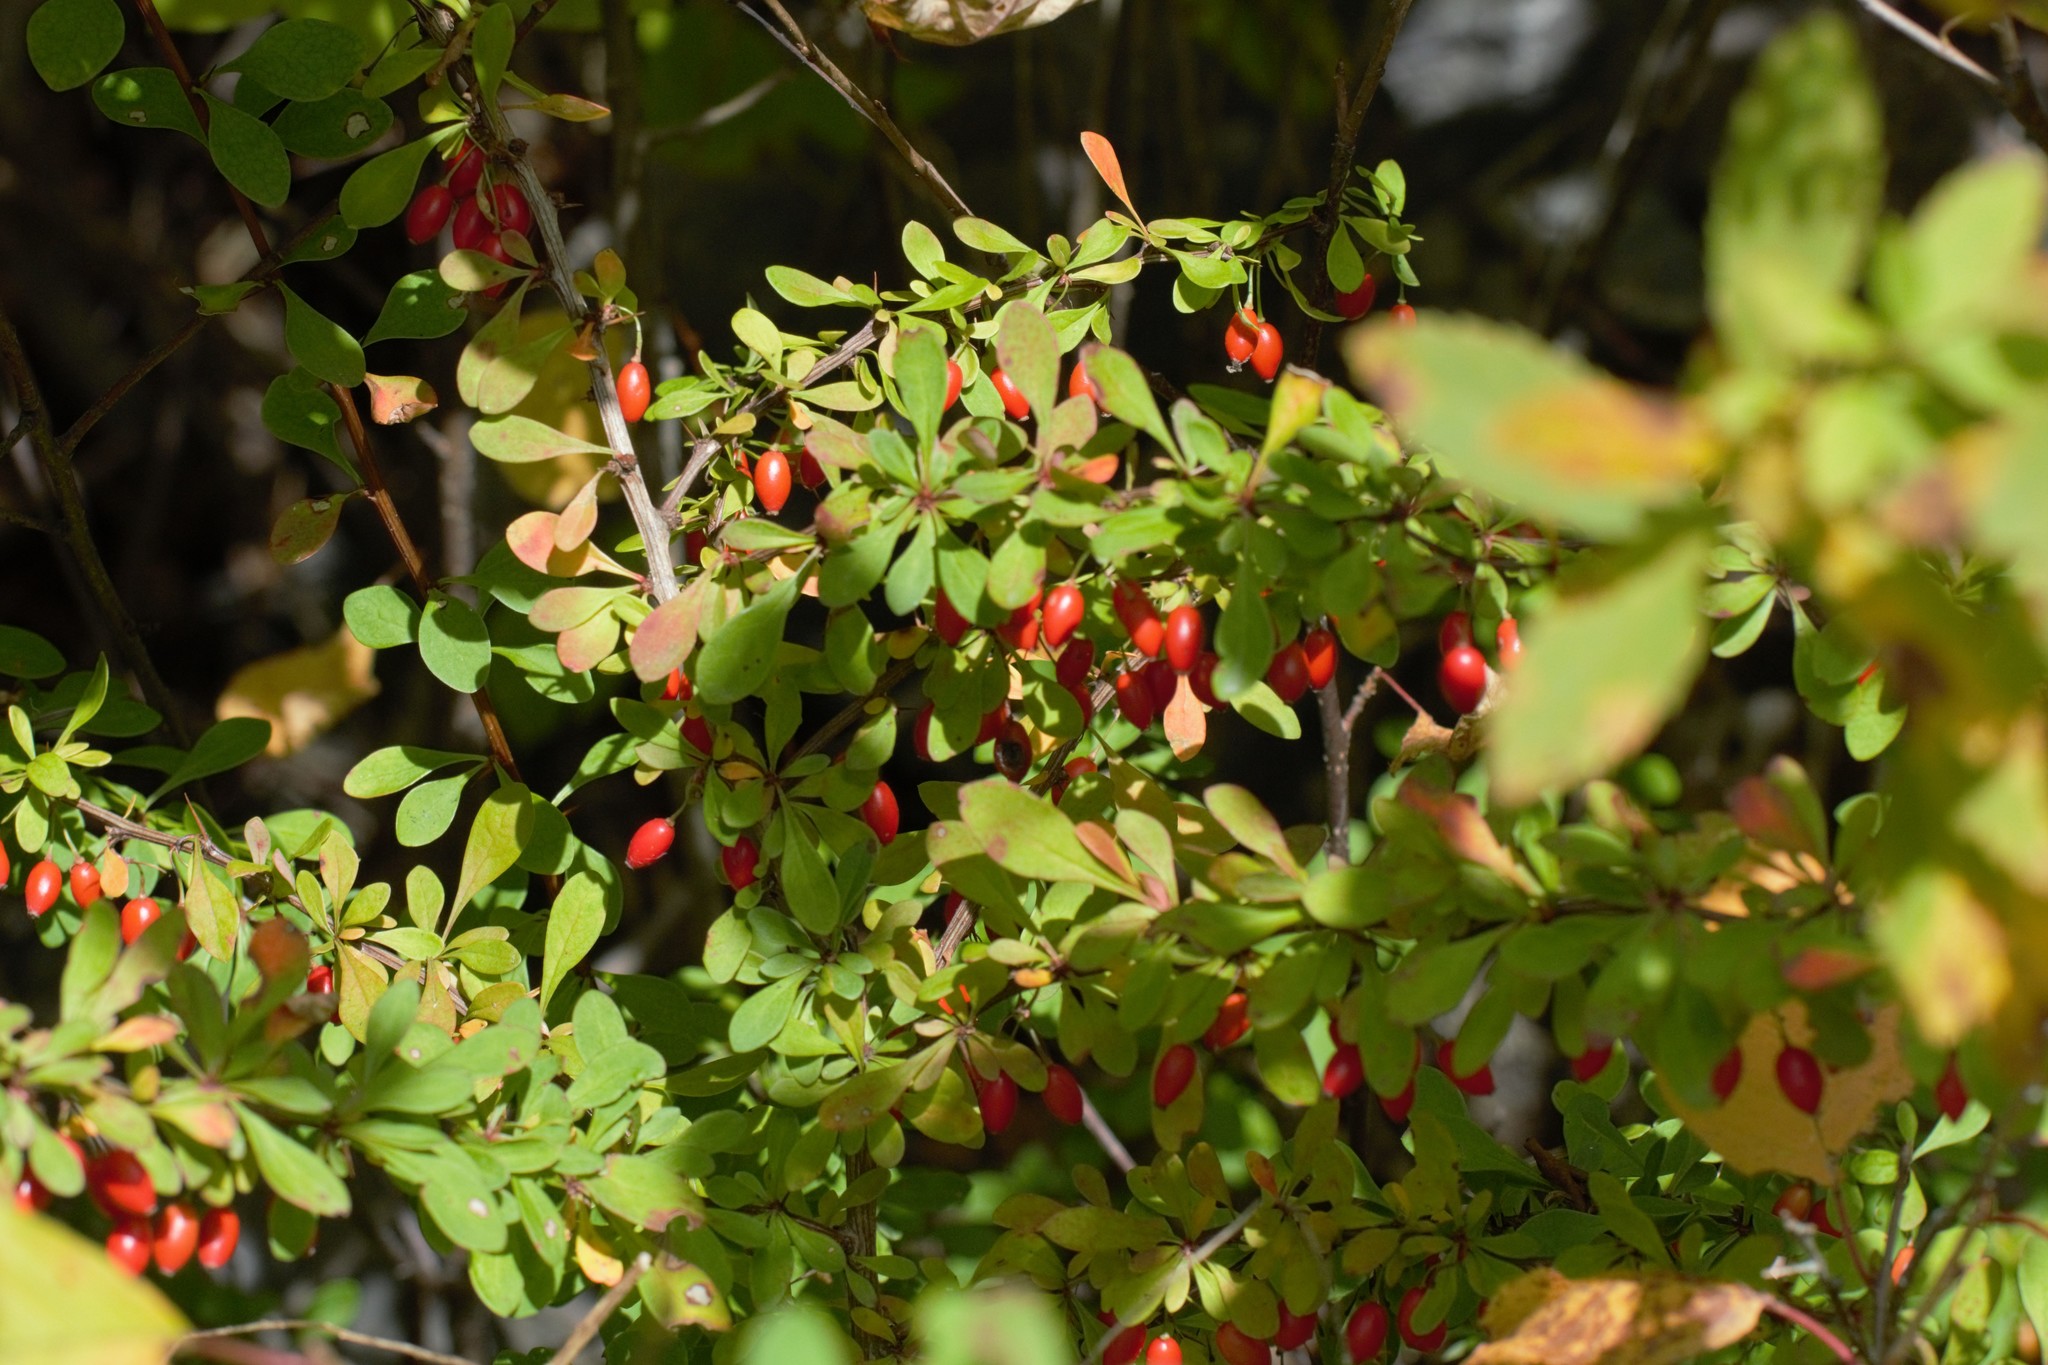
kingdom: Plantae
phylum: Tracheophyta
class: Magnoliopsida
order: Ranunculales
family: Berberidaceae
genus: Berberis
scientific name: Berberis thunbergii
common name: Japanese barberry
